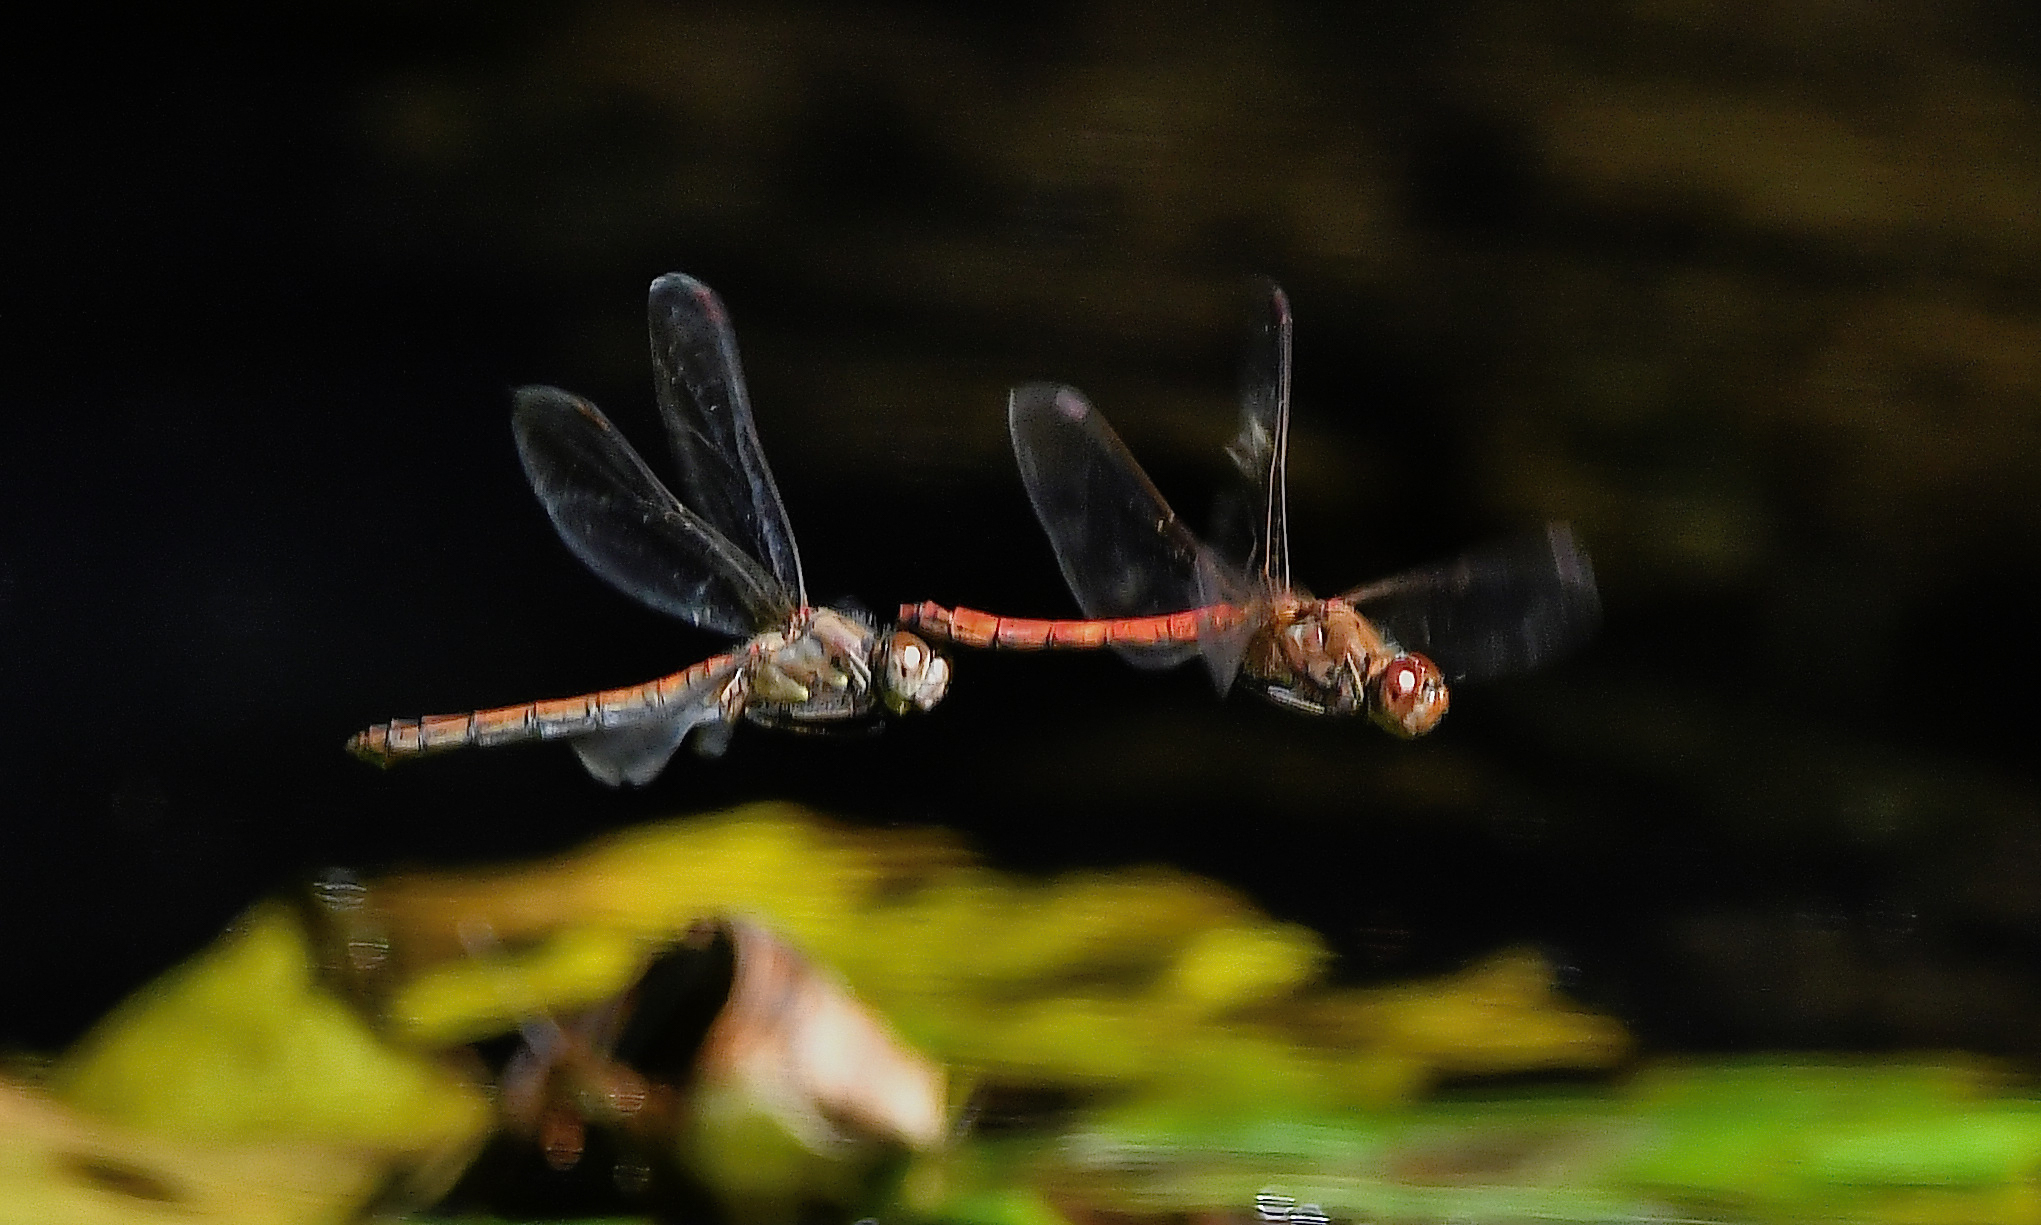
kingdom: Animalia
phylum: Arthropoda
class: Insecta
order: Odonata
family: Libellulidae
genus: Sympetrum
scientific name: Sympetrum striolatum
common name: Common darter
